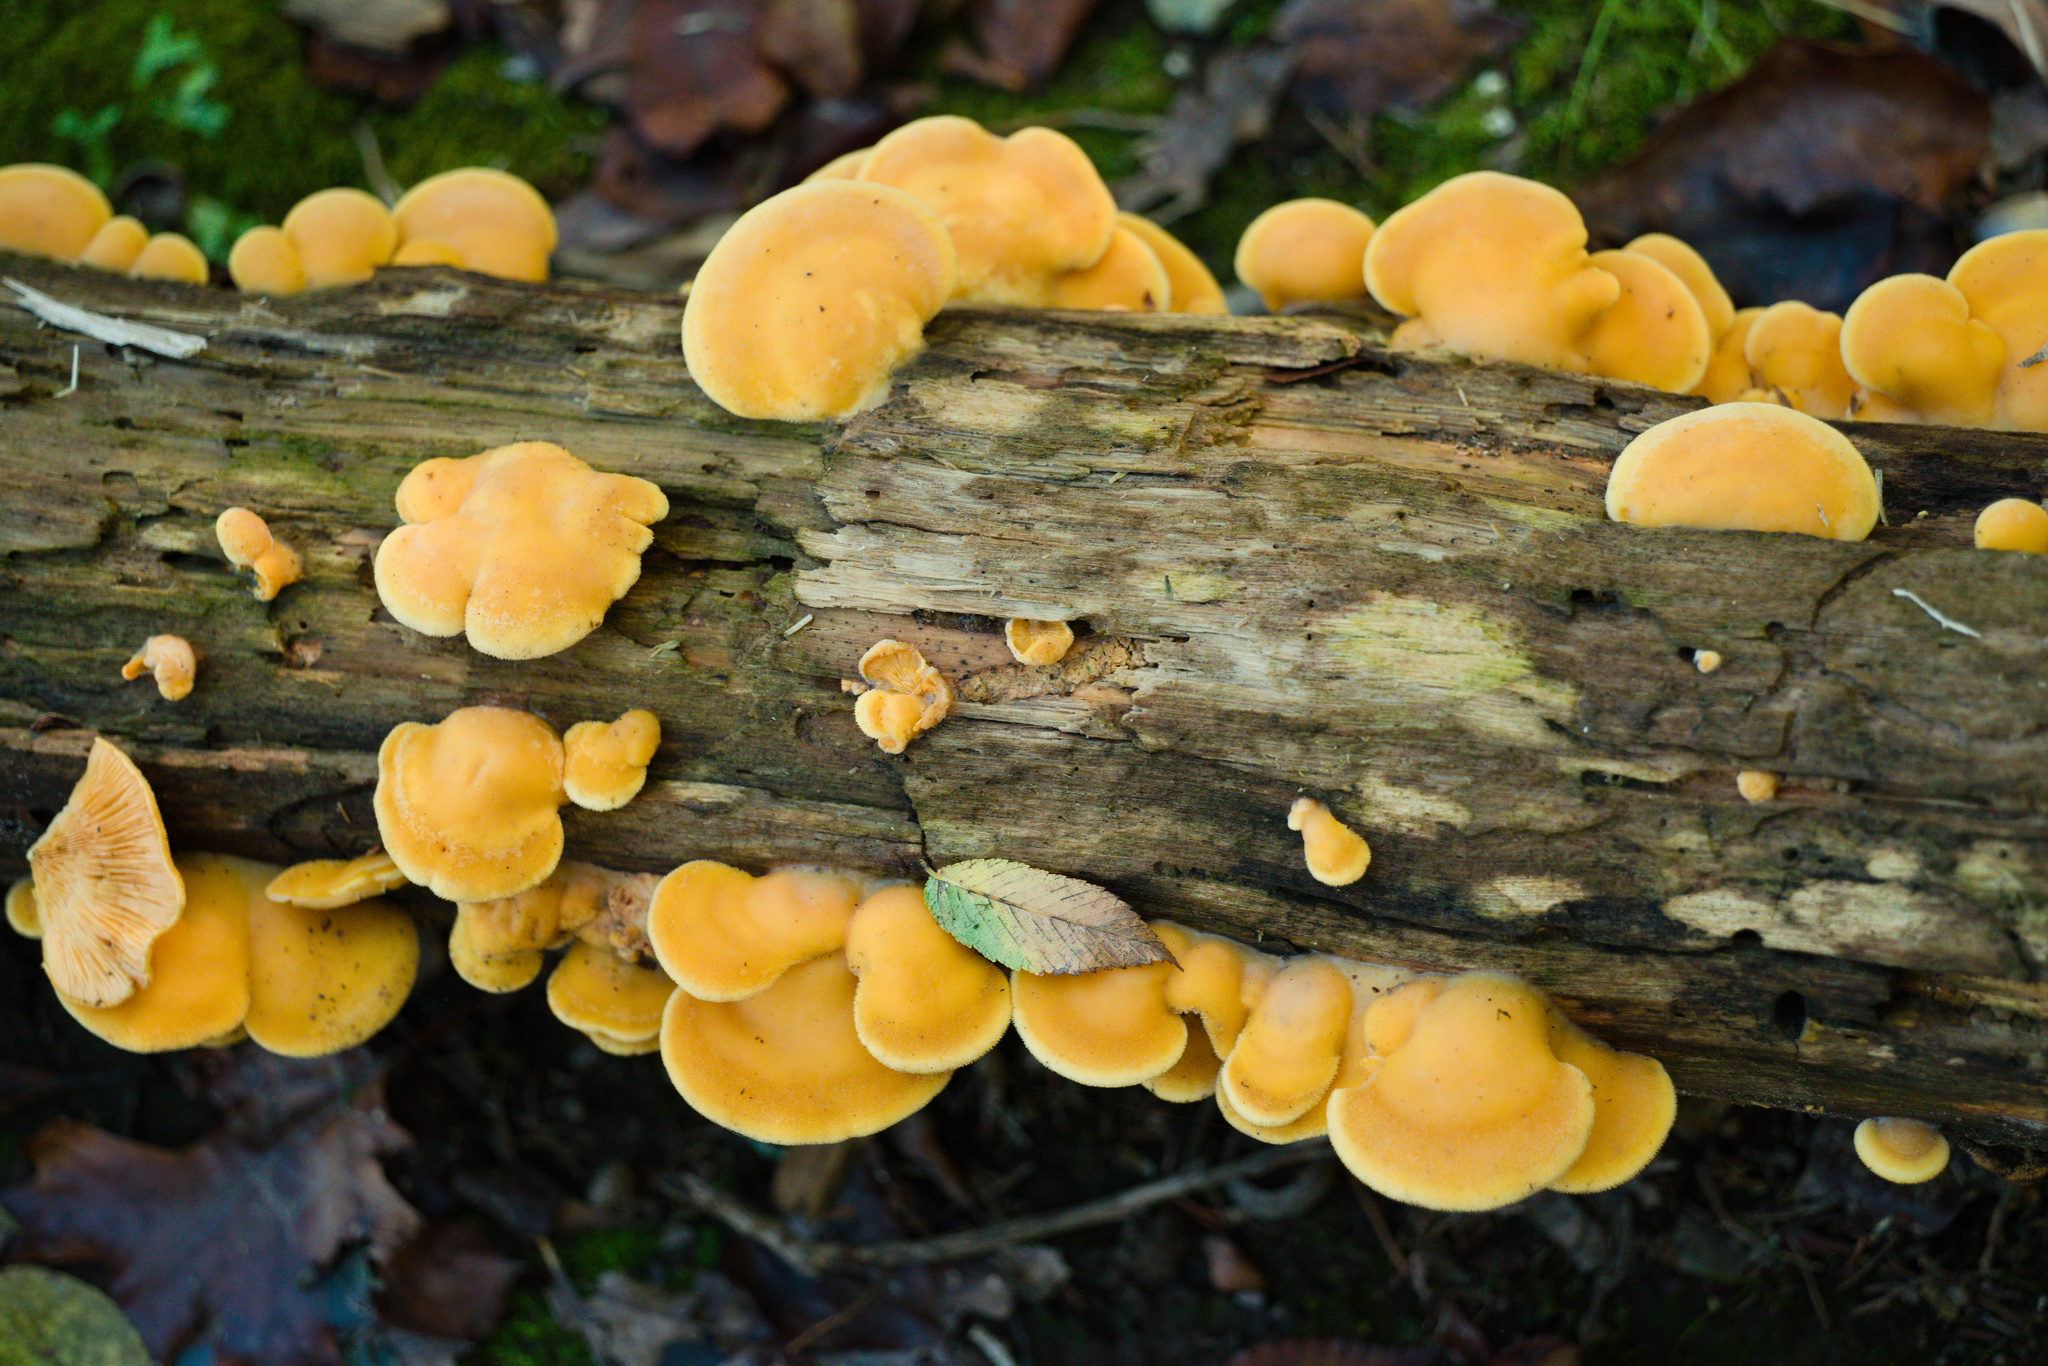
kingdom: Fungi
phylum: Basidiomycota
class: Agaricomycetes
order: Agaricales
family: Phyllotopsidaceae
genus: Phyllotopsis
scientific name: Phyllotopsis nidulans
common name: Orange mock oyster
